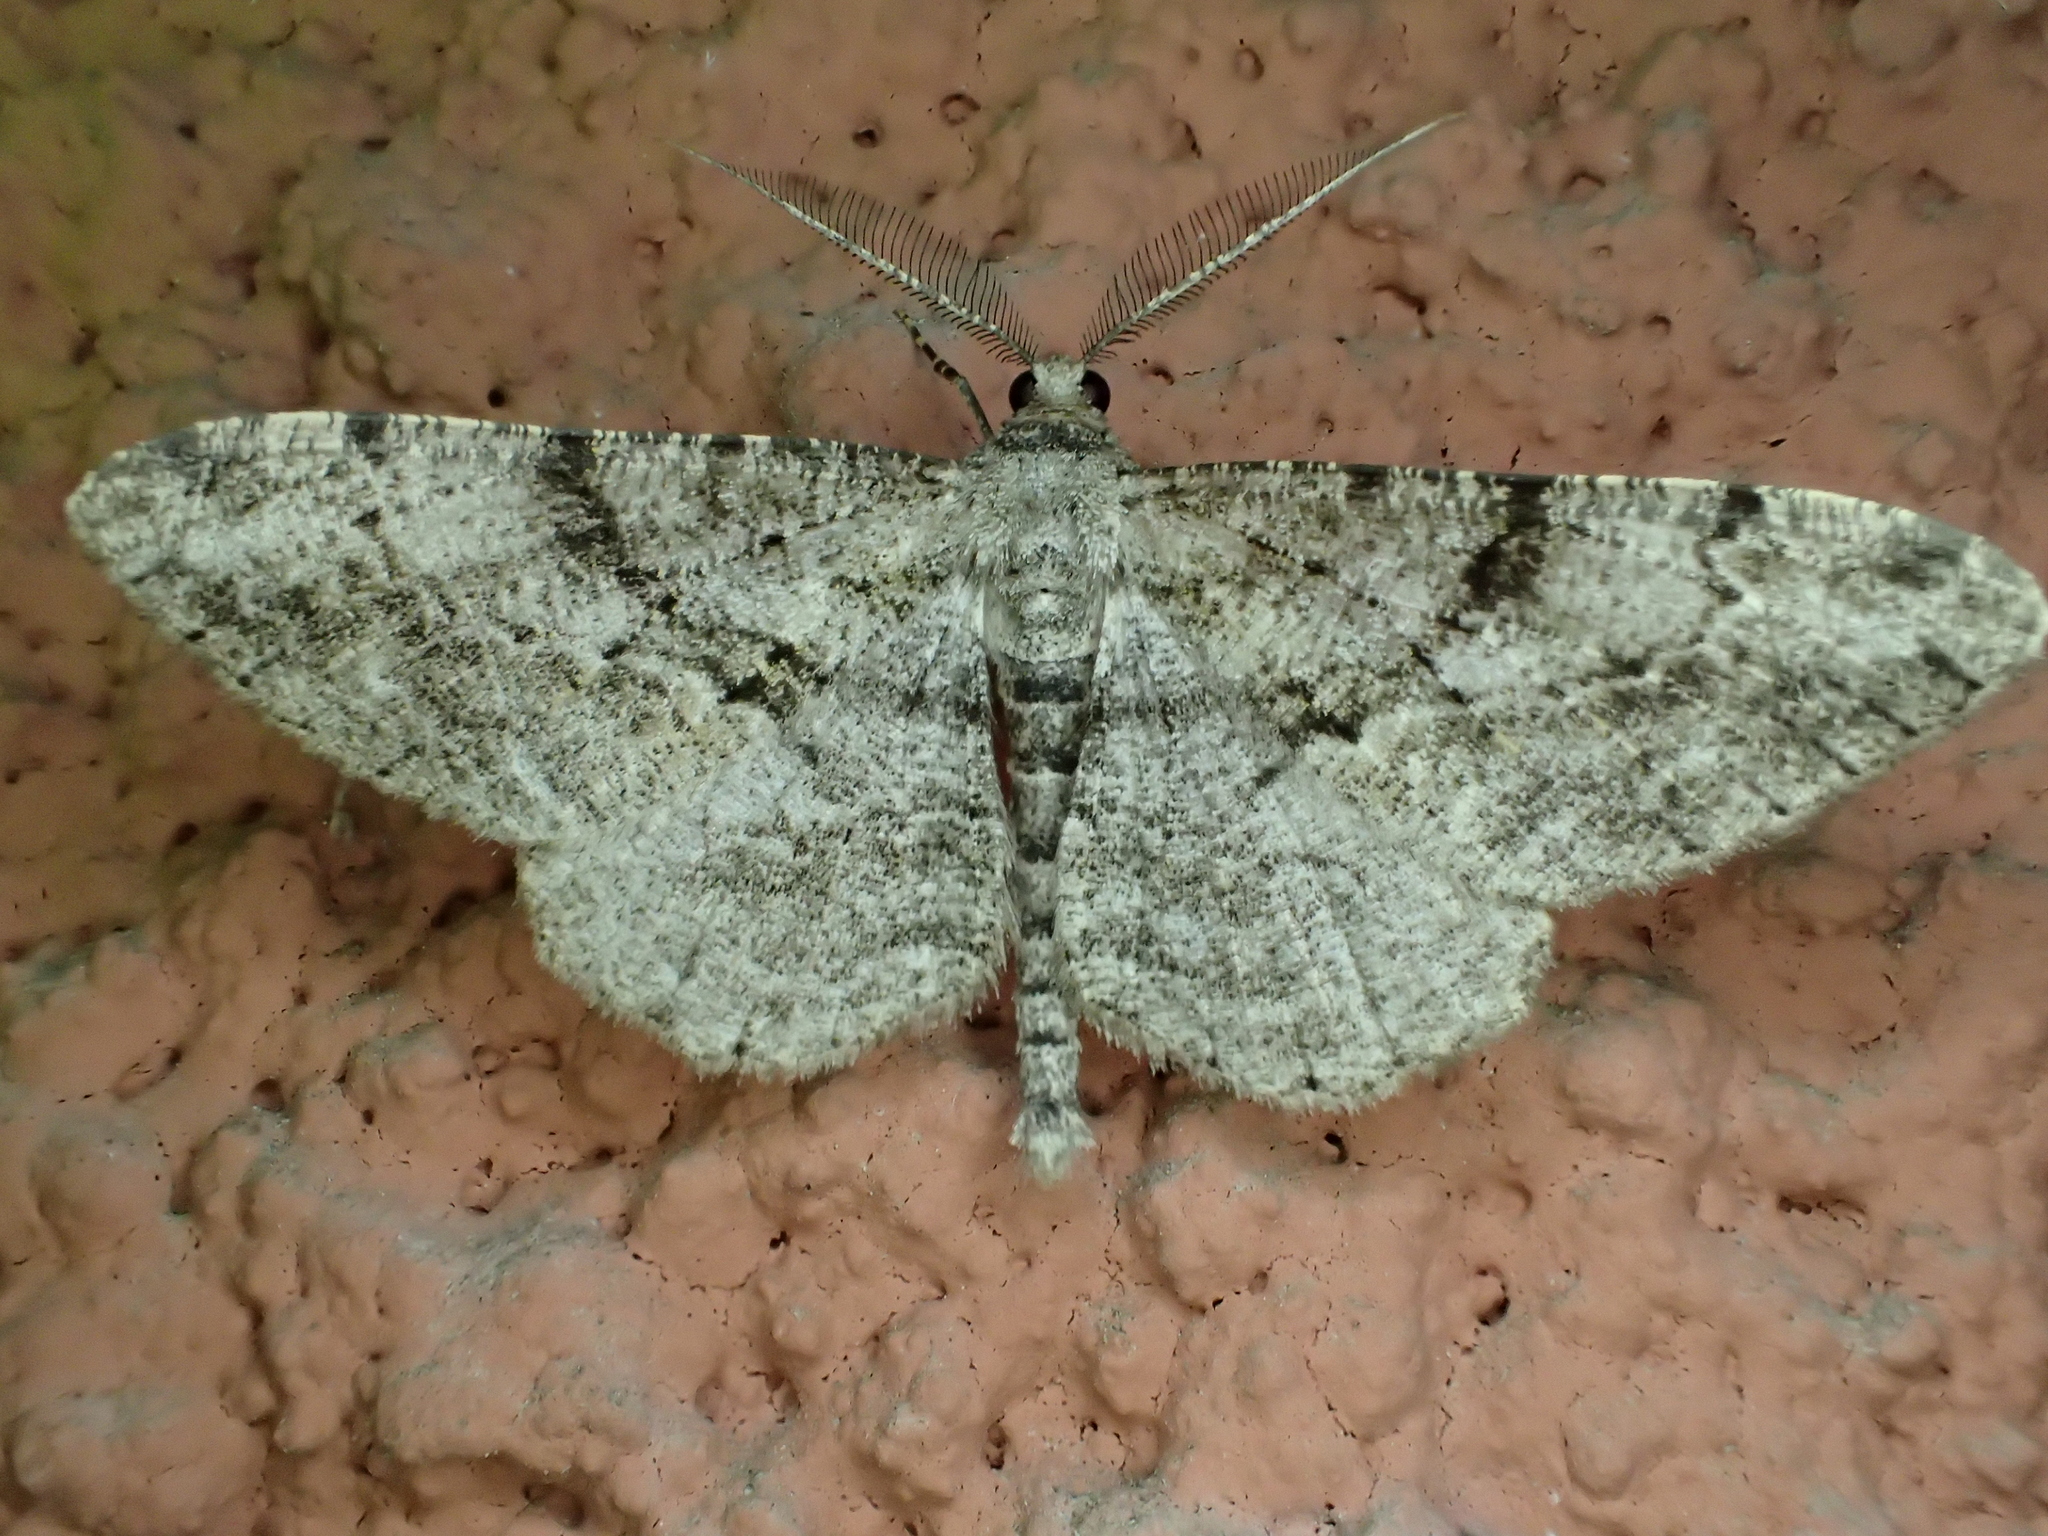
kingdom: Animalia
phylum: Arthropoda
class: Insecta
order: Lepidoptera
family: Geometridae
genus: Peribatodes
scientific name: Peribatodes rhomboidaria
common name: Willow beauty
